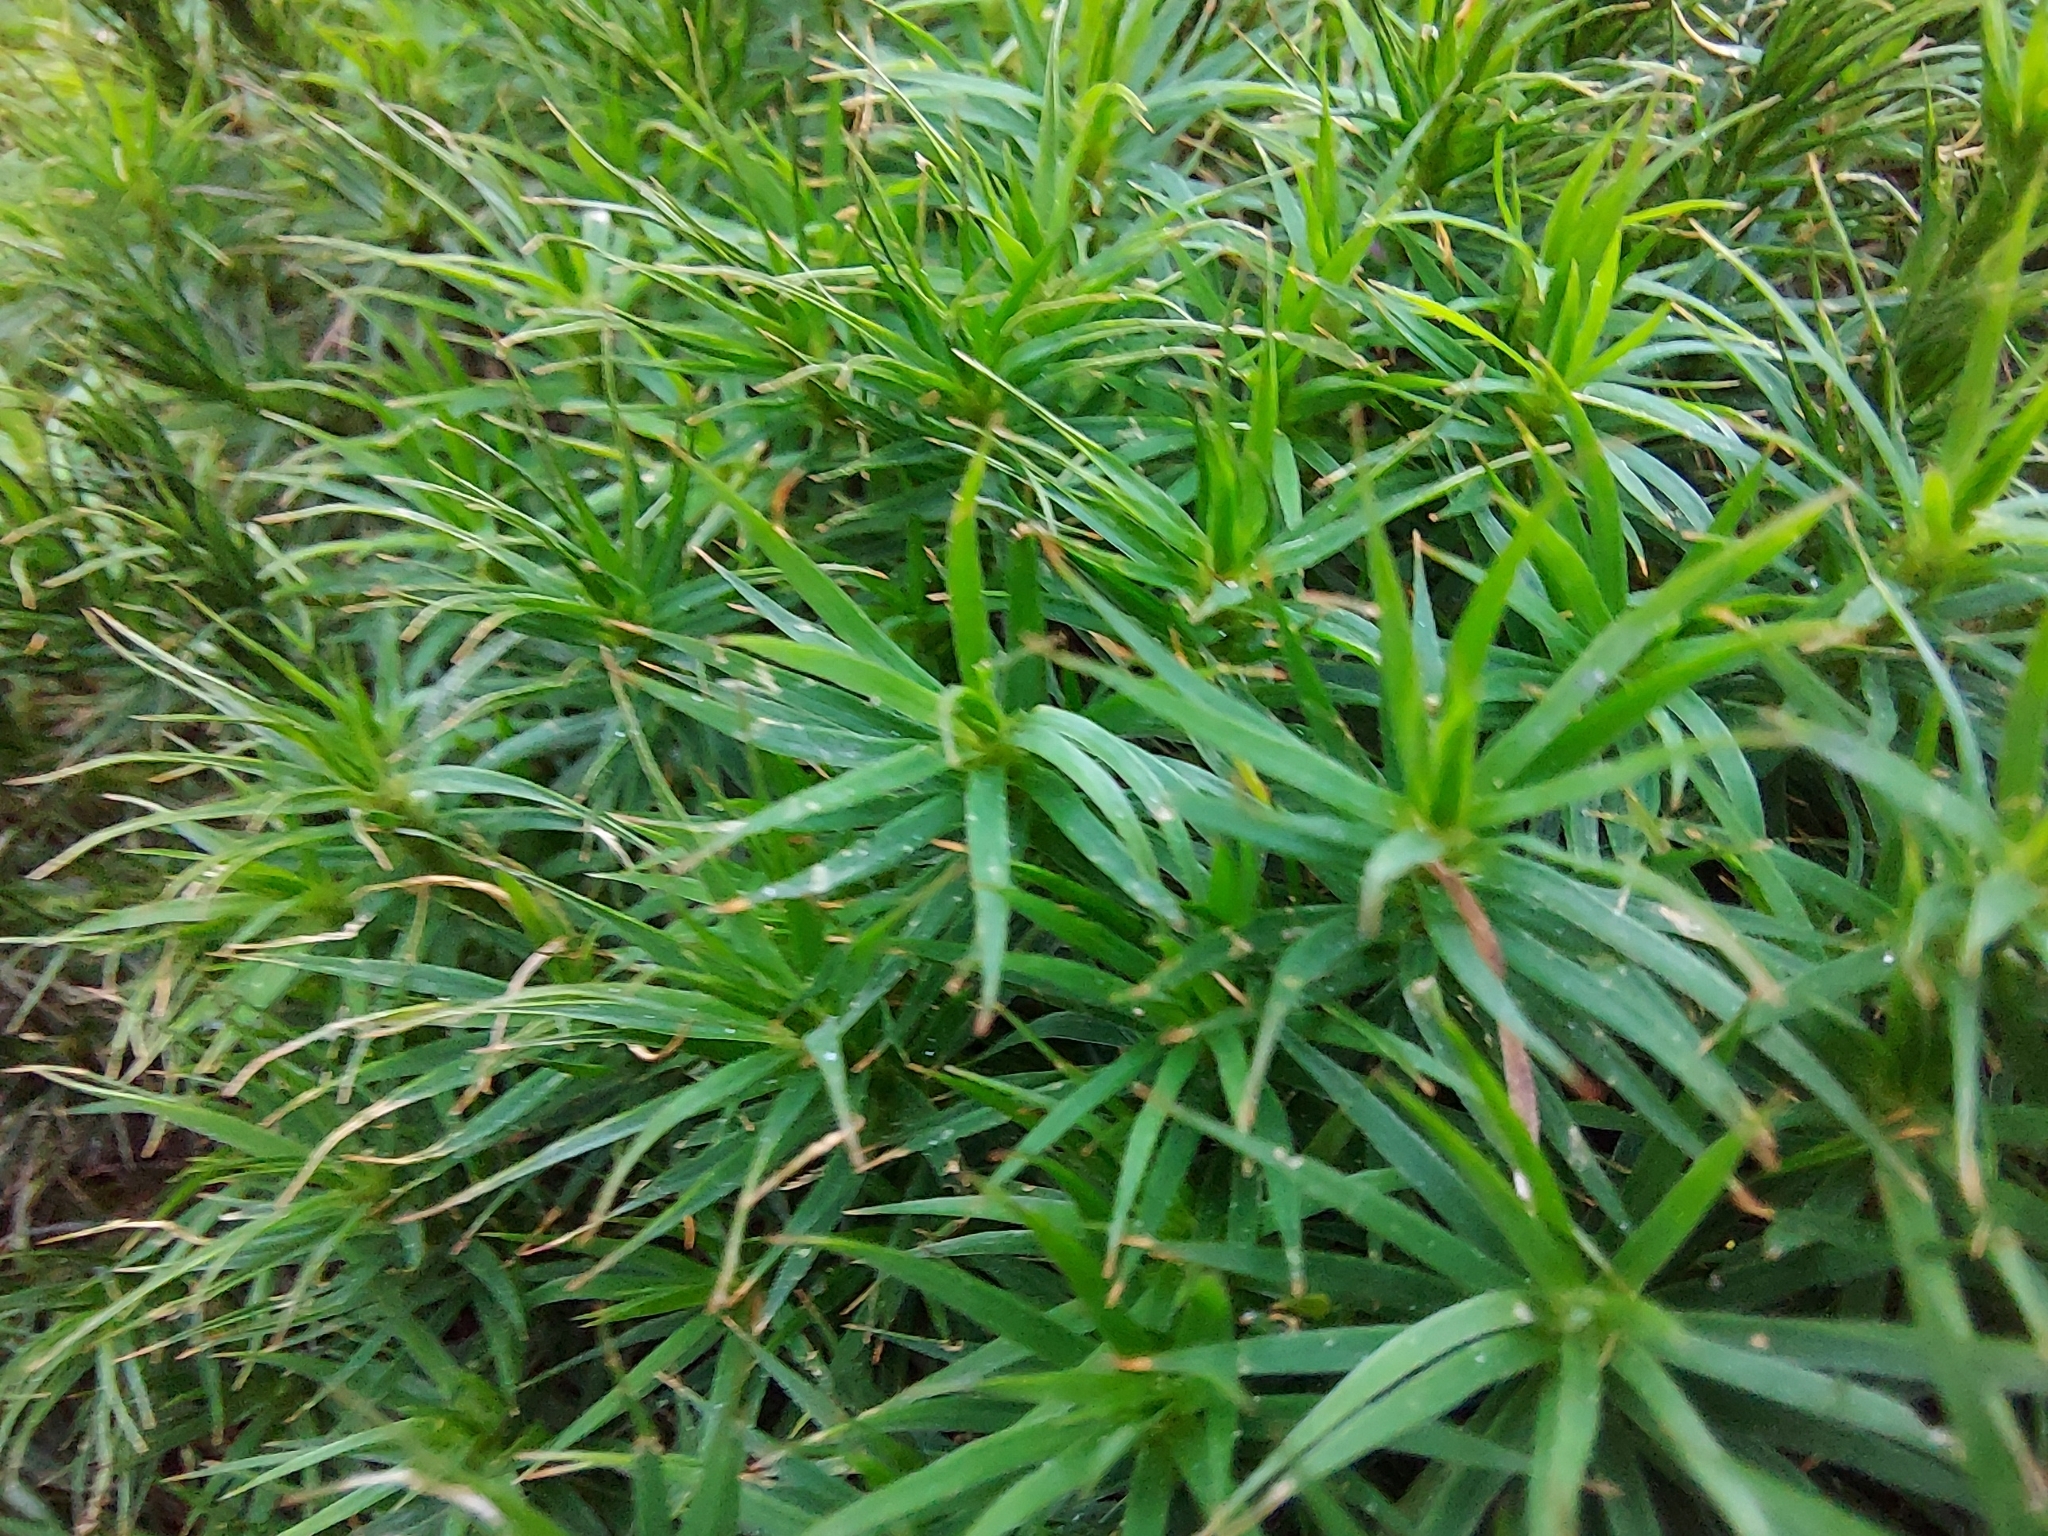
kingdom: Plantae
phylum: Bryophyta
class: Polytrichopsida
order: Polytrichales
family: Polytrichaceae
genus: Polytrichum
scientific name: Polytrichum formosum
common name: Bank haircap moss
